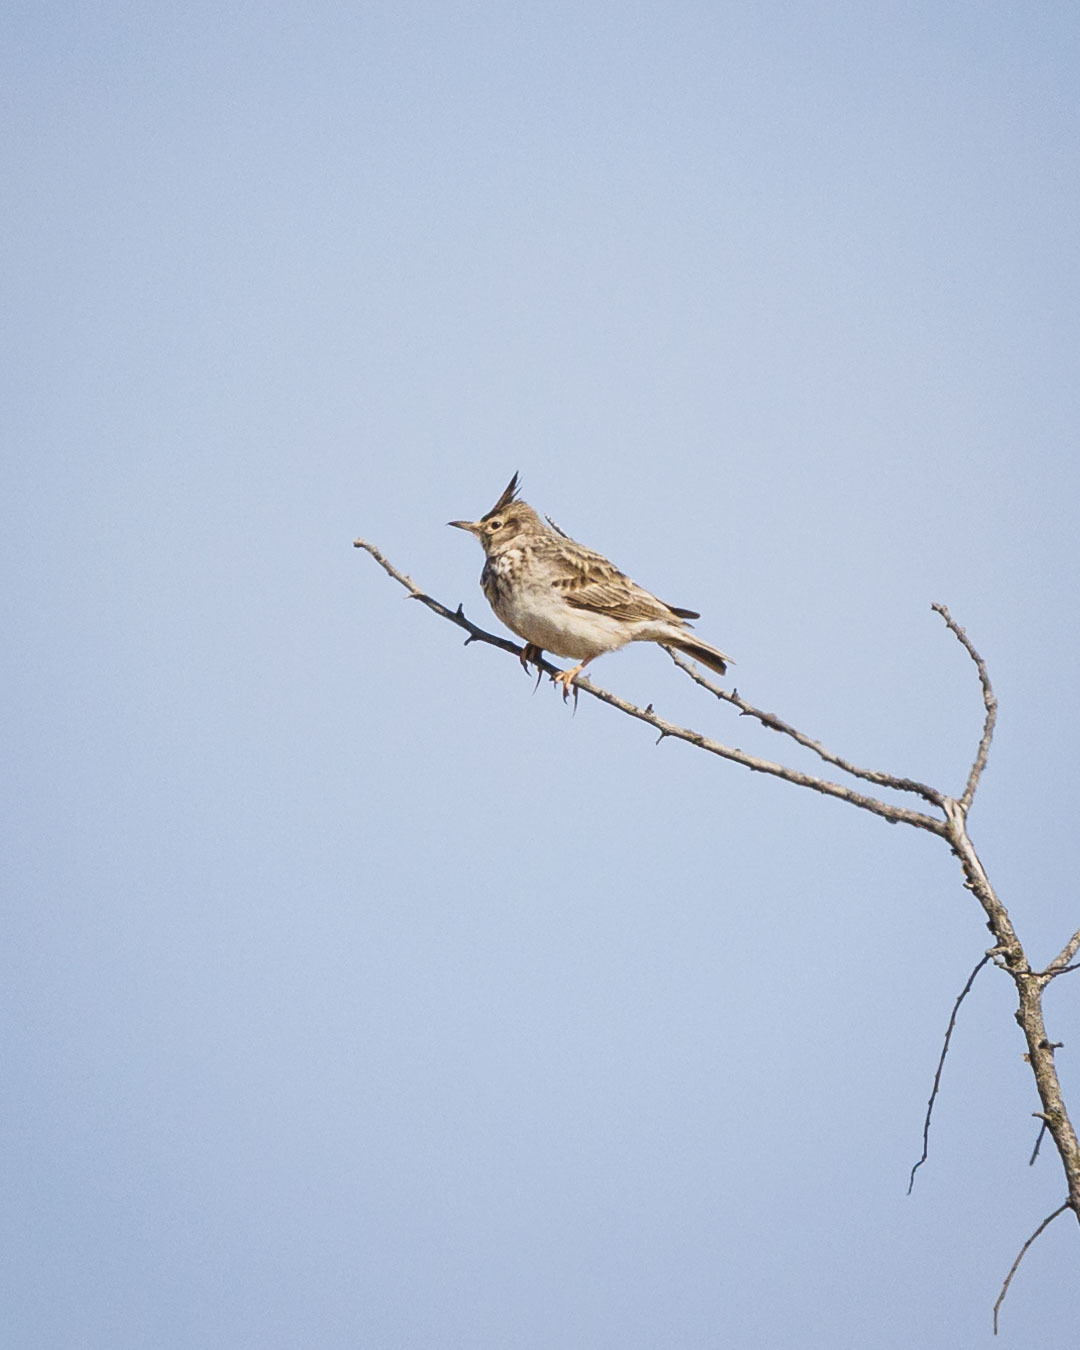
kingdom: Animalia
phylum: Chordata
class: Aves
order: Passeriformes
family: Alaudidae
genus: Galerida
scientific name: Galerida cristata
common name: Crested lark
